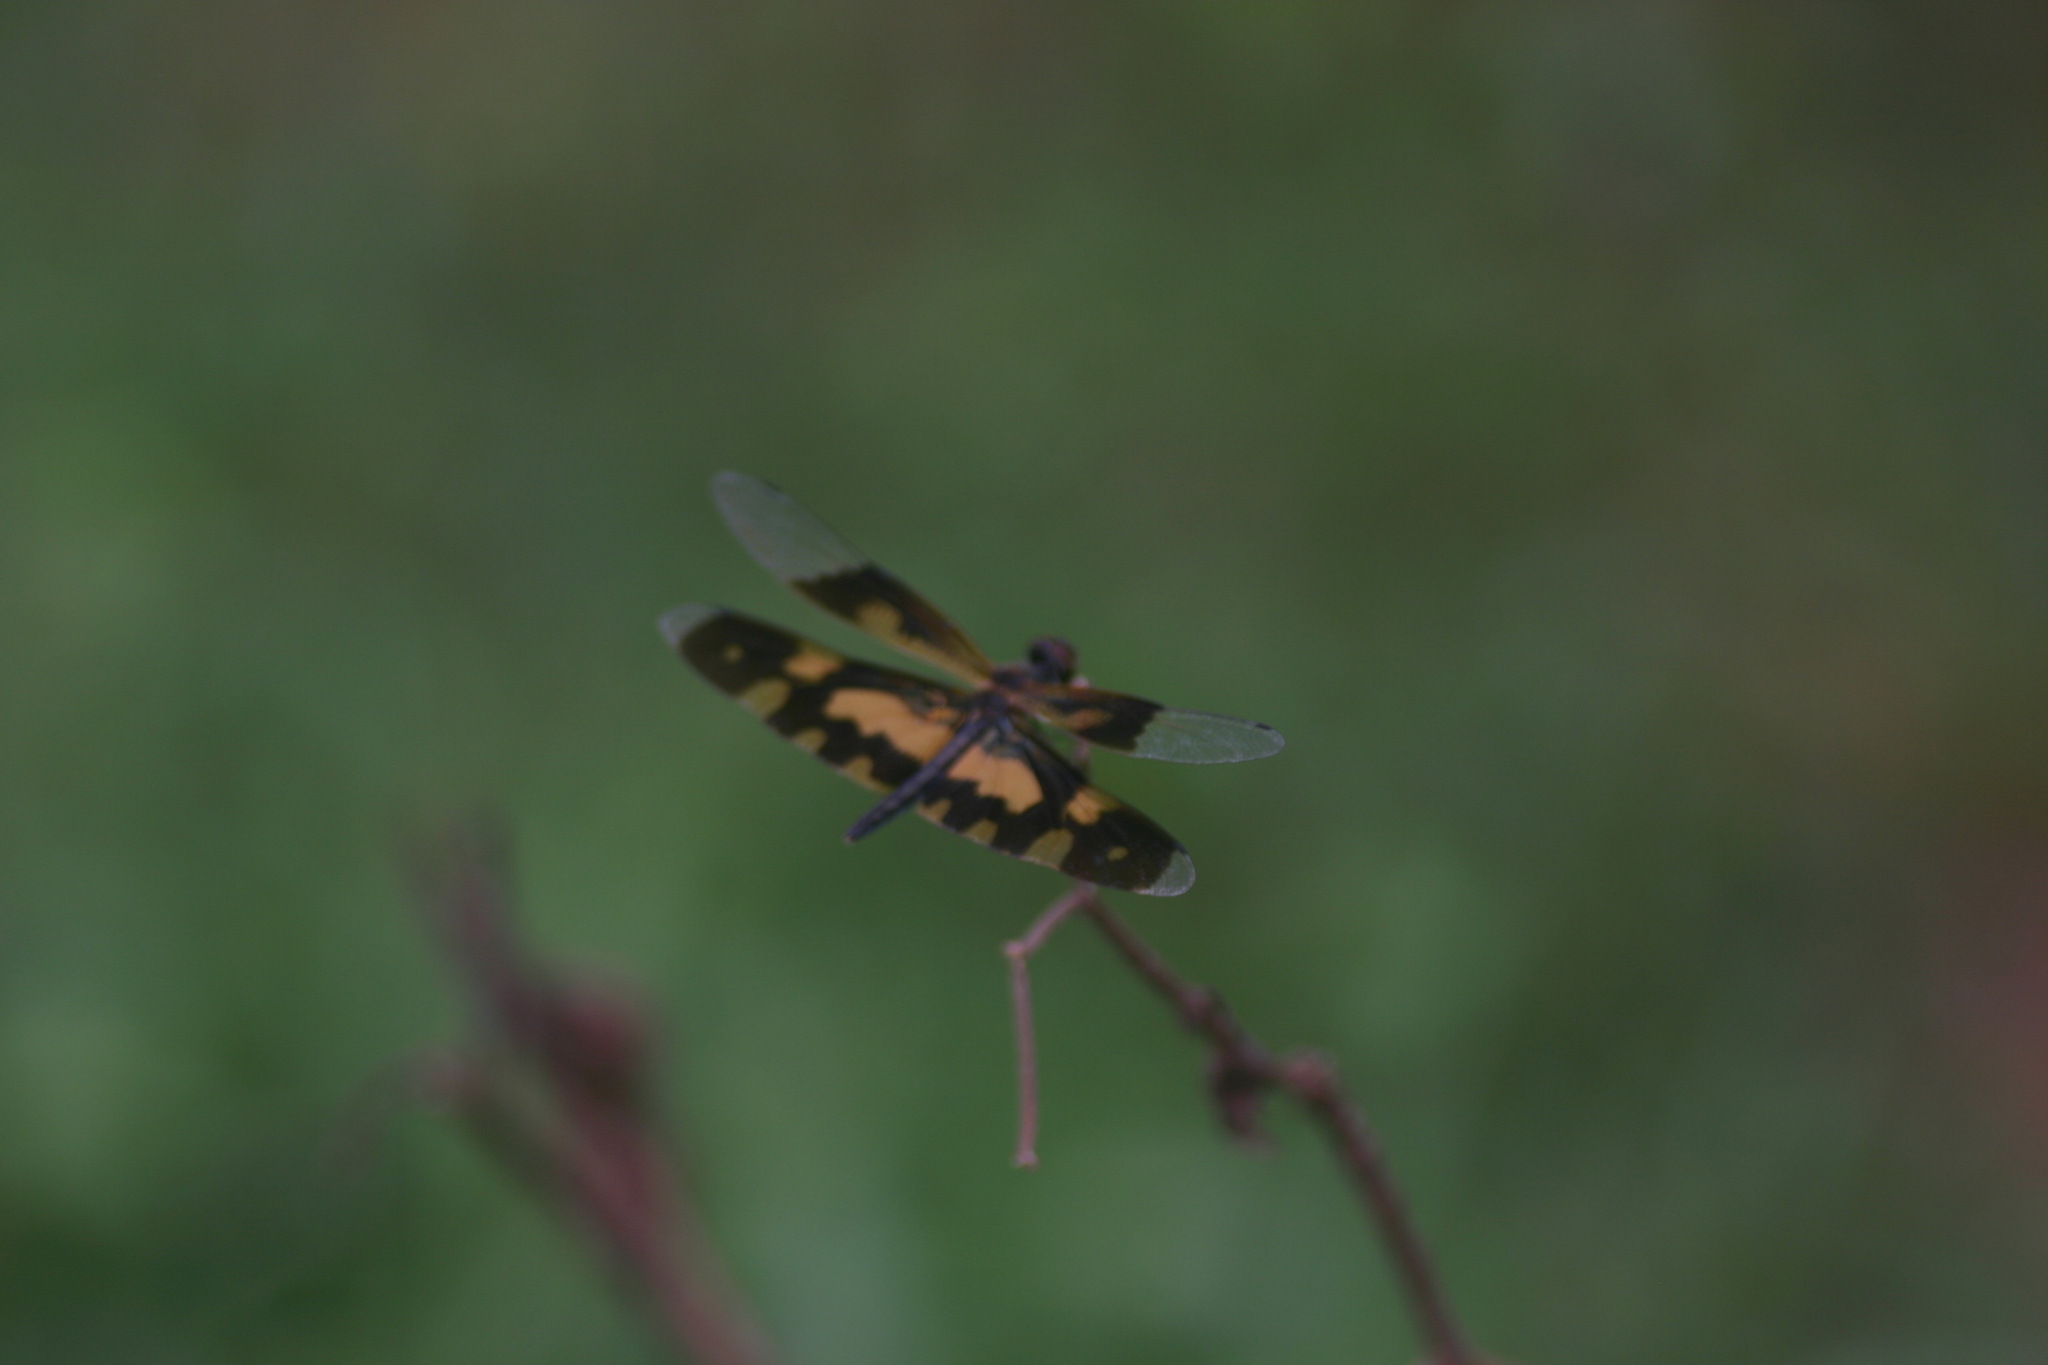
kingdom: Animalia
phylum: Arthropoda
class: Insecta
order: Odonata
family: Libellulidae
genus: Rhyothemis
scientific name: Rhyothemis variegata
